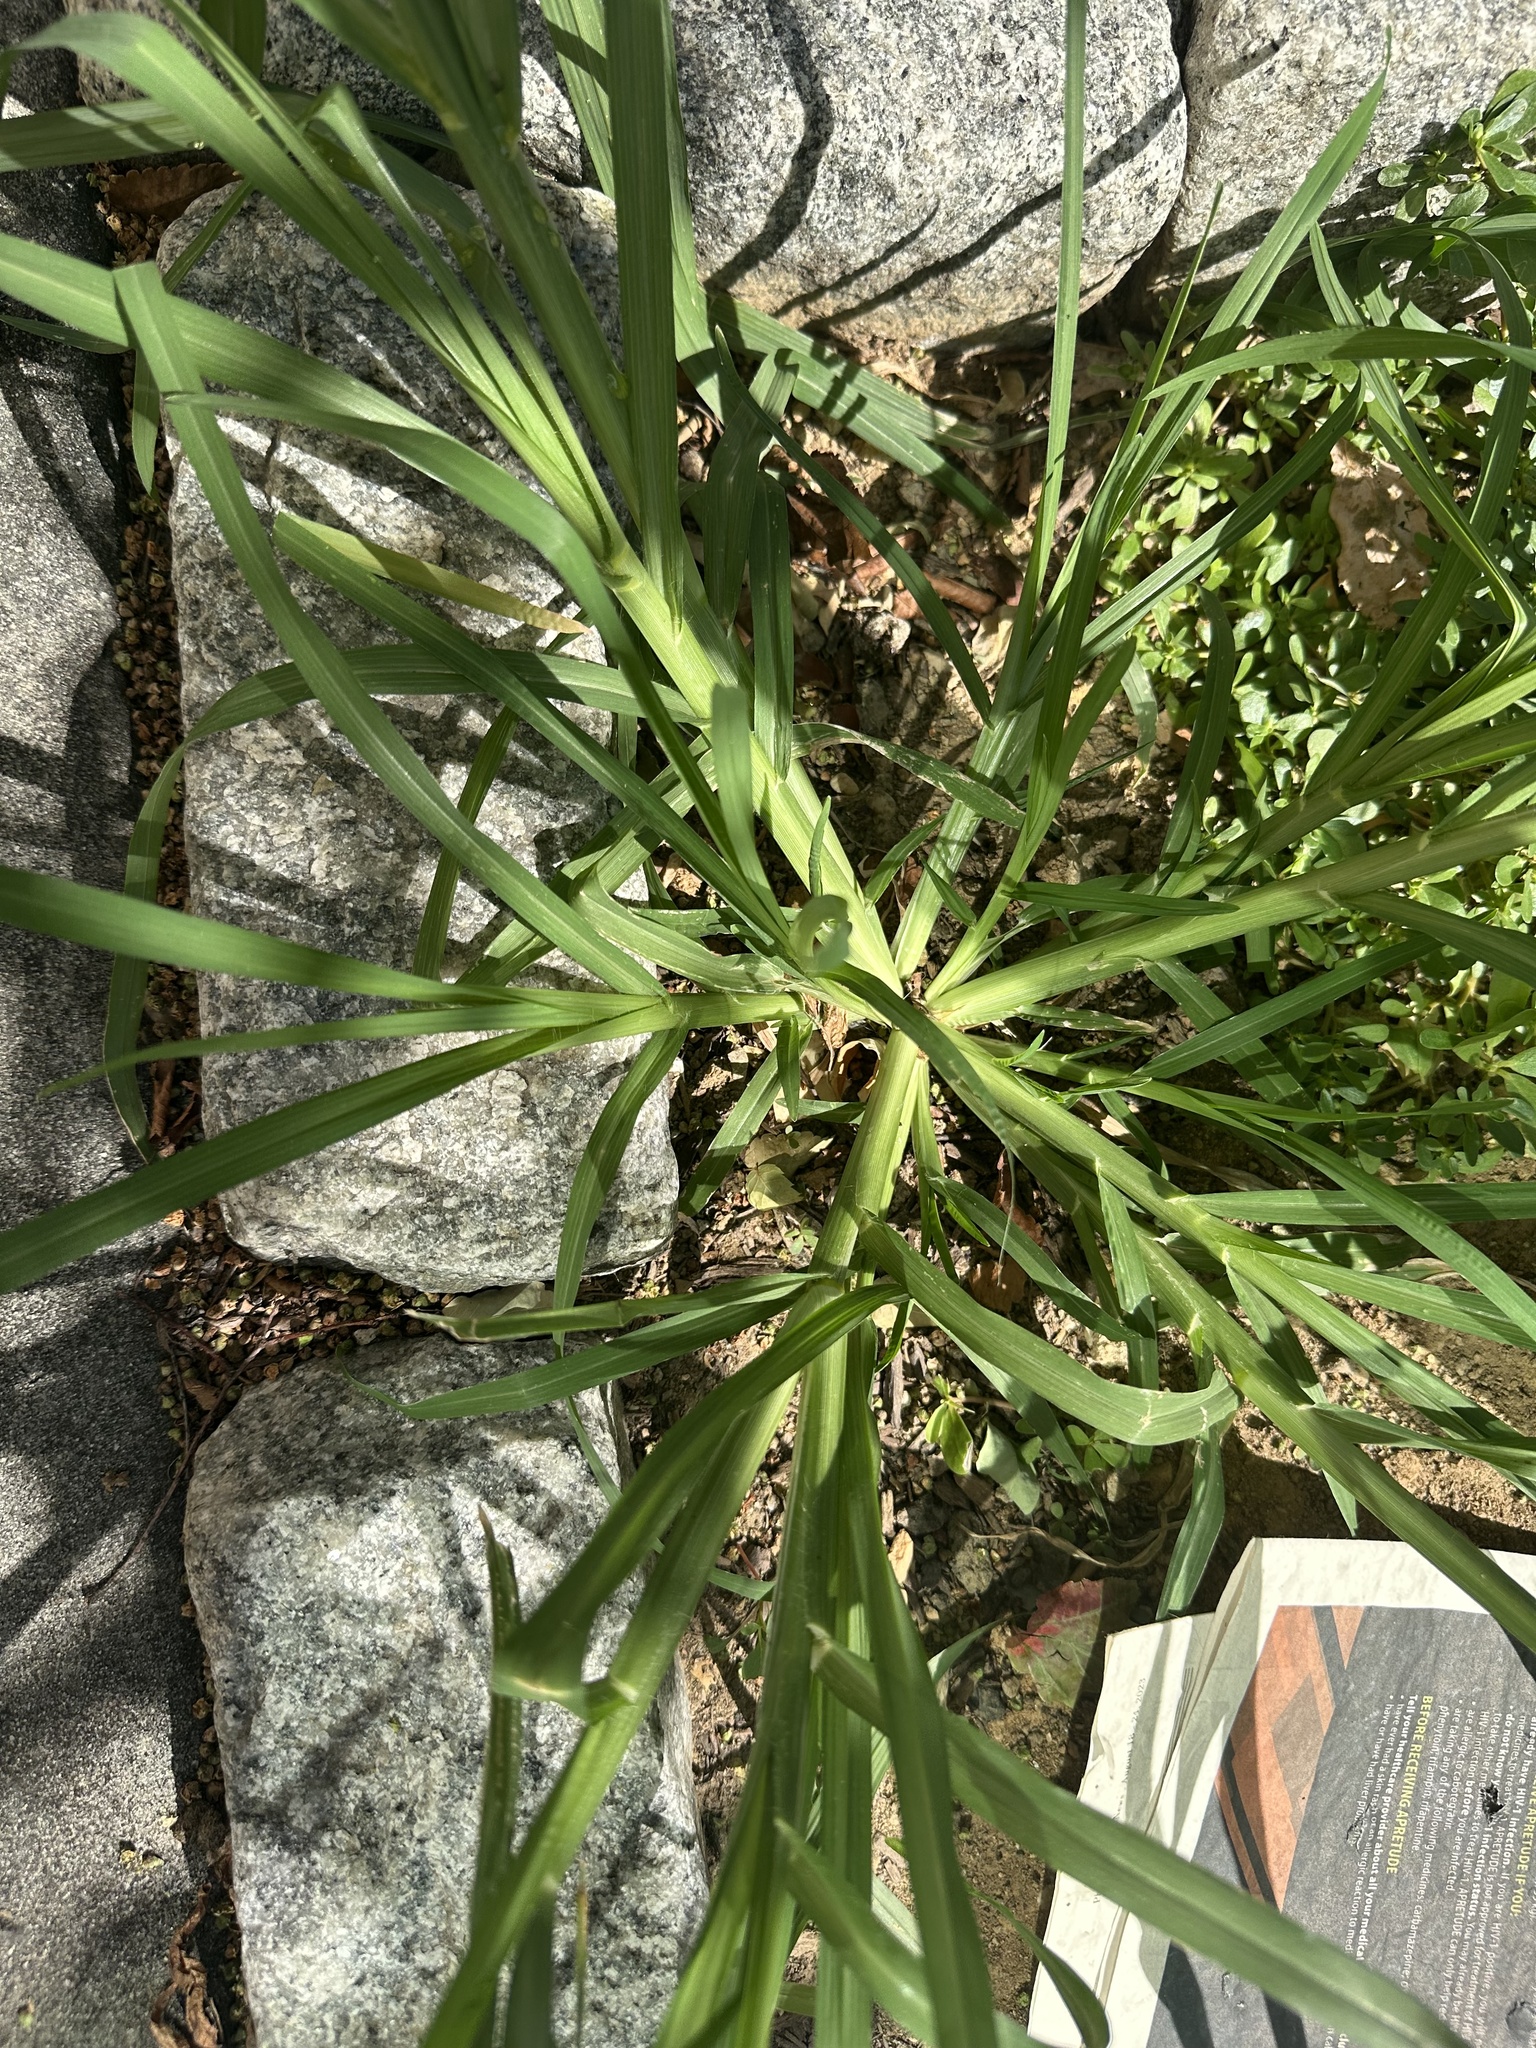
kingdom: Plantae
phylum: Tracheophyta
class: Liliopsida
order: Poales
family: Poaceae
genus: Eleusine
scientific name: Eleusine indica
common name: Yard-grass
